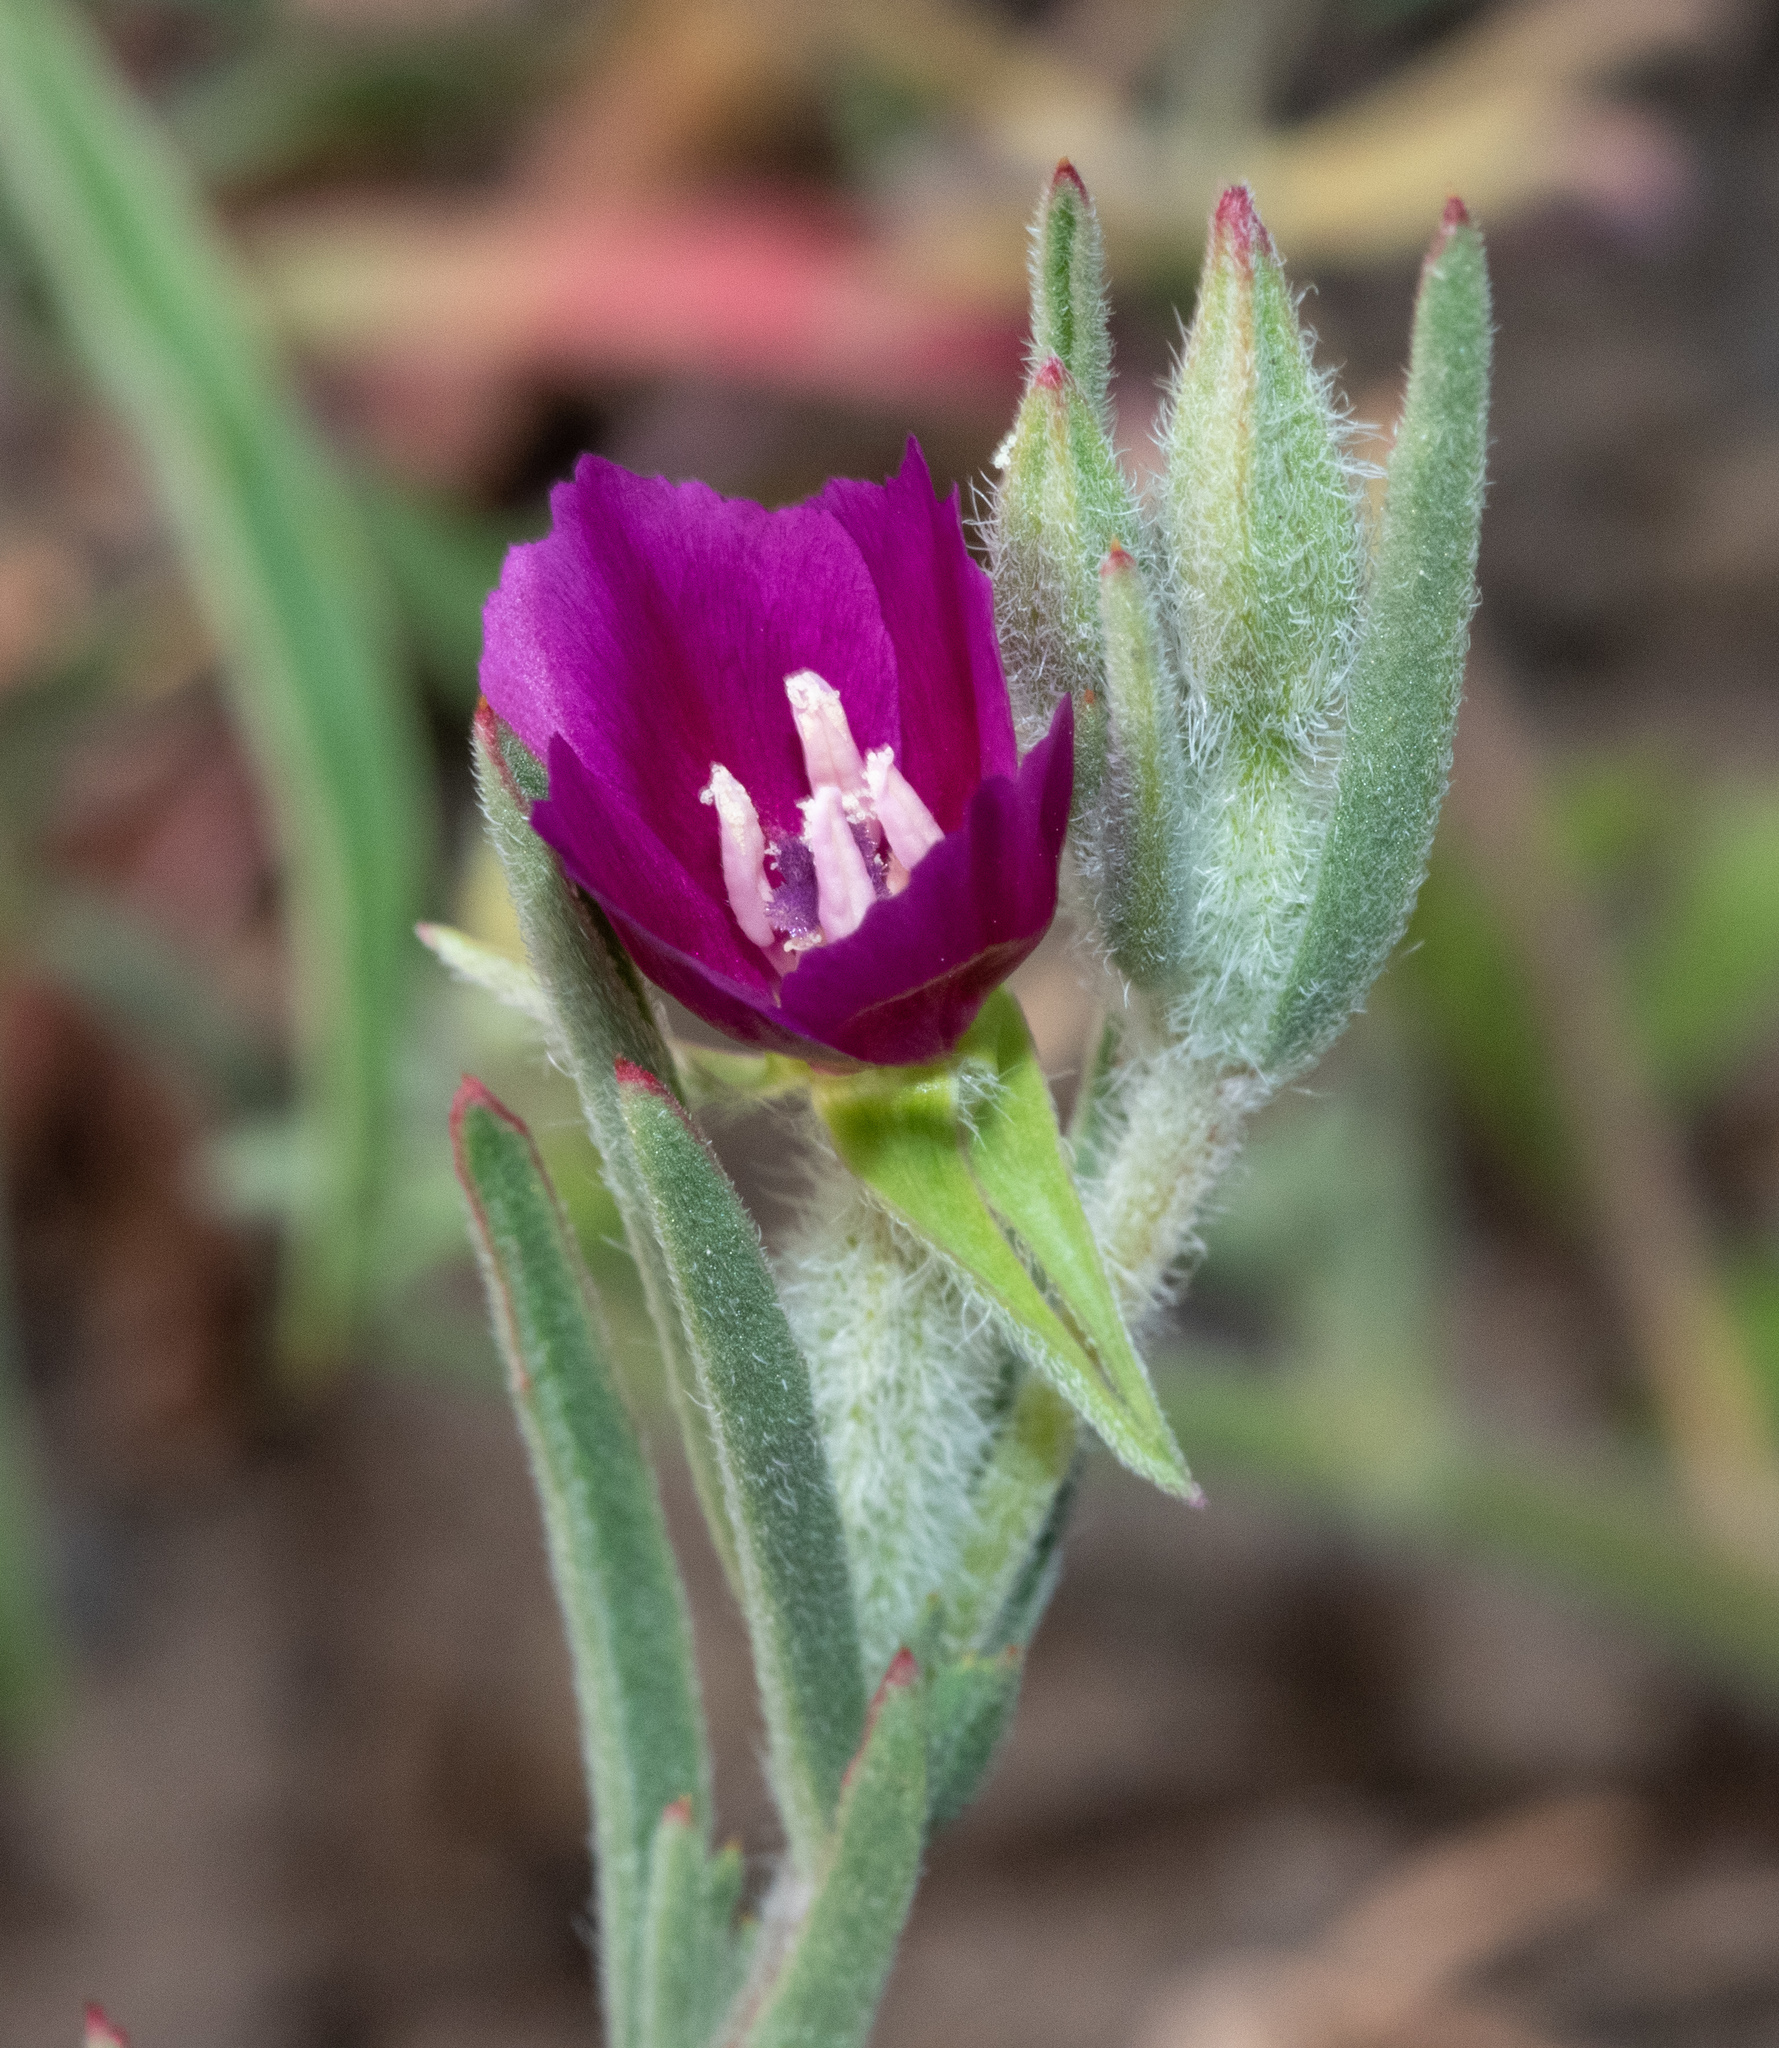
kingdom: Plantae
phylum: Tracheophyta
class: Magnoliopsida
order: Myrtales
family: Onagraceae
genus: Clarkia
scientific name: Clarkia purpurea
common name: Purple clarkia
